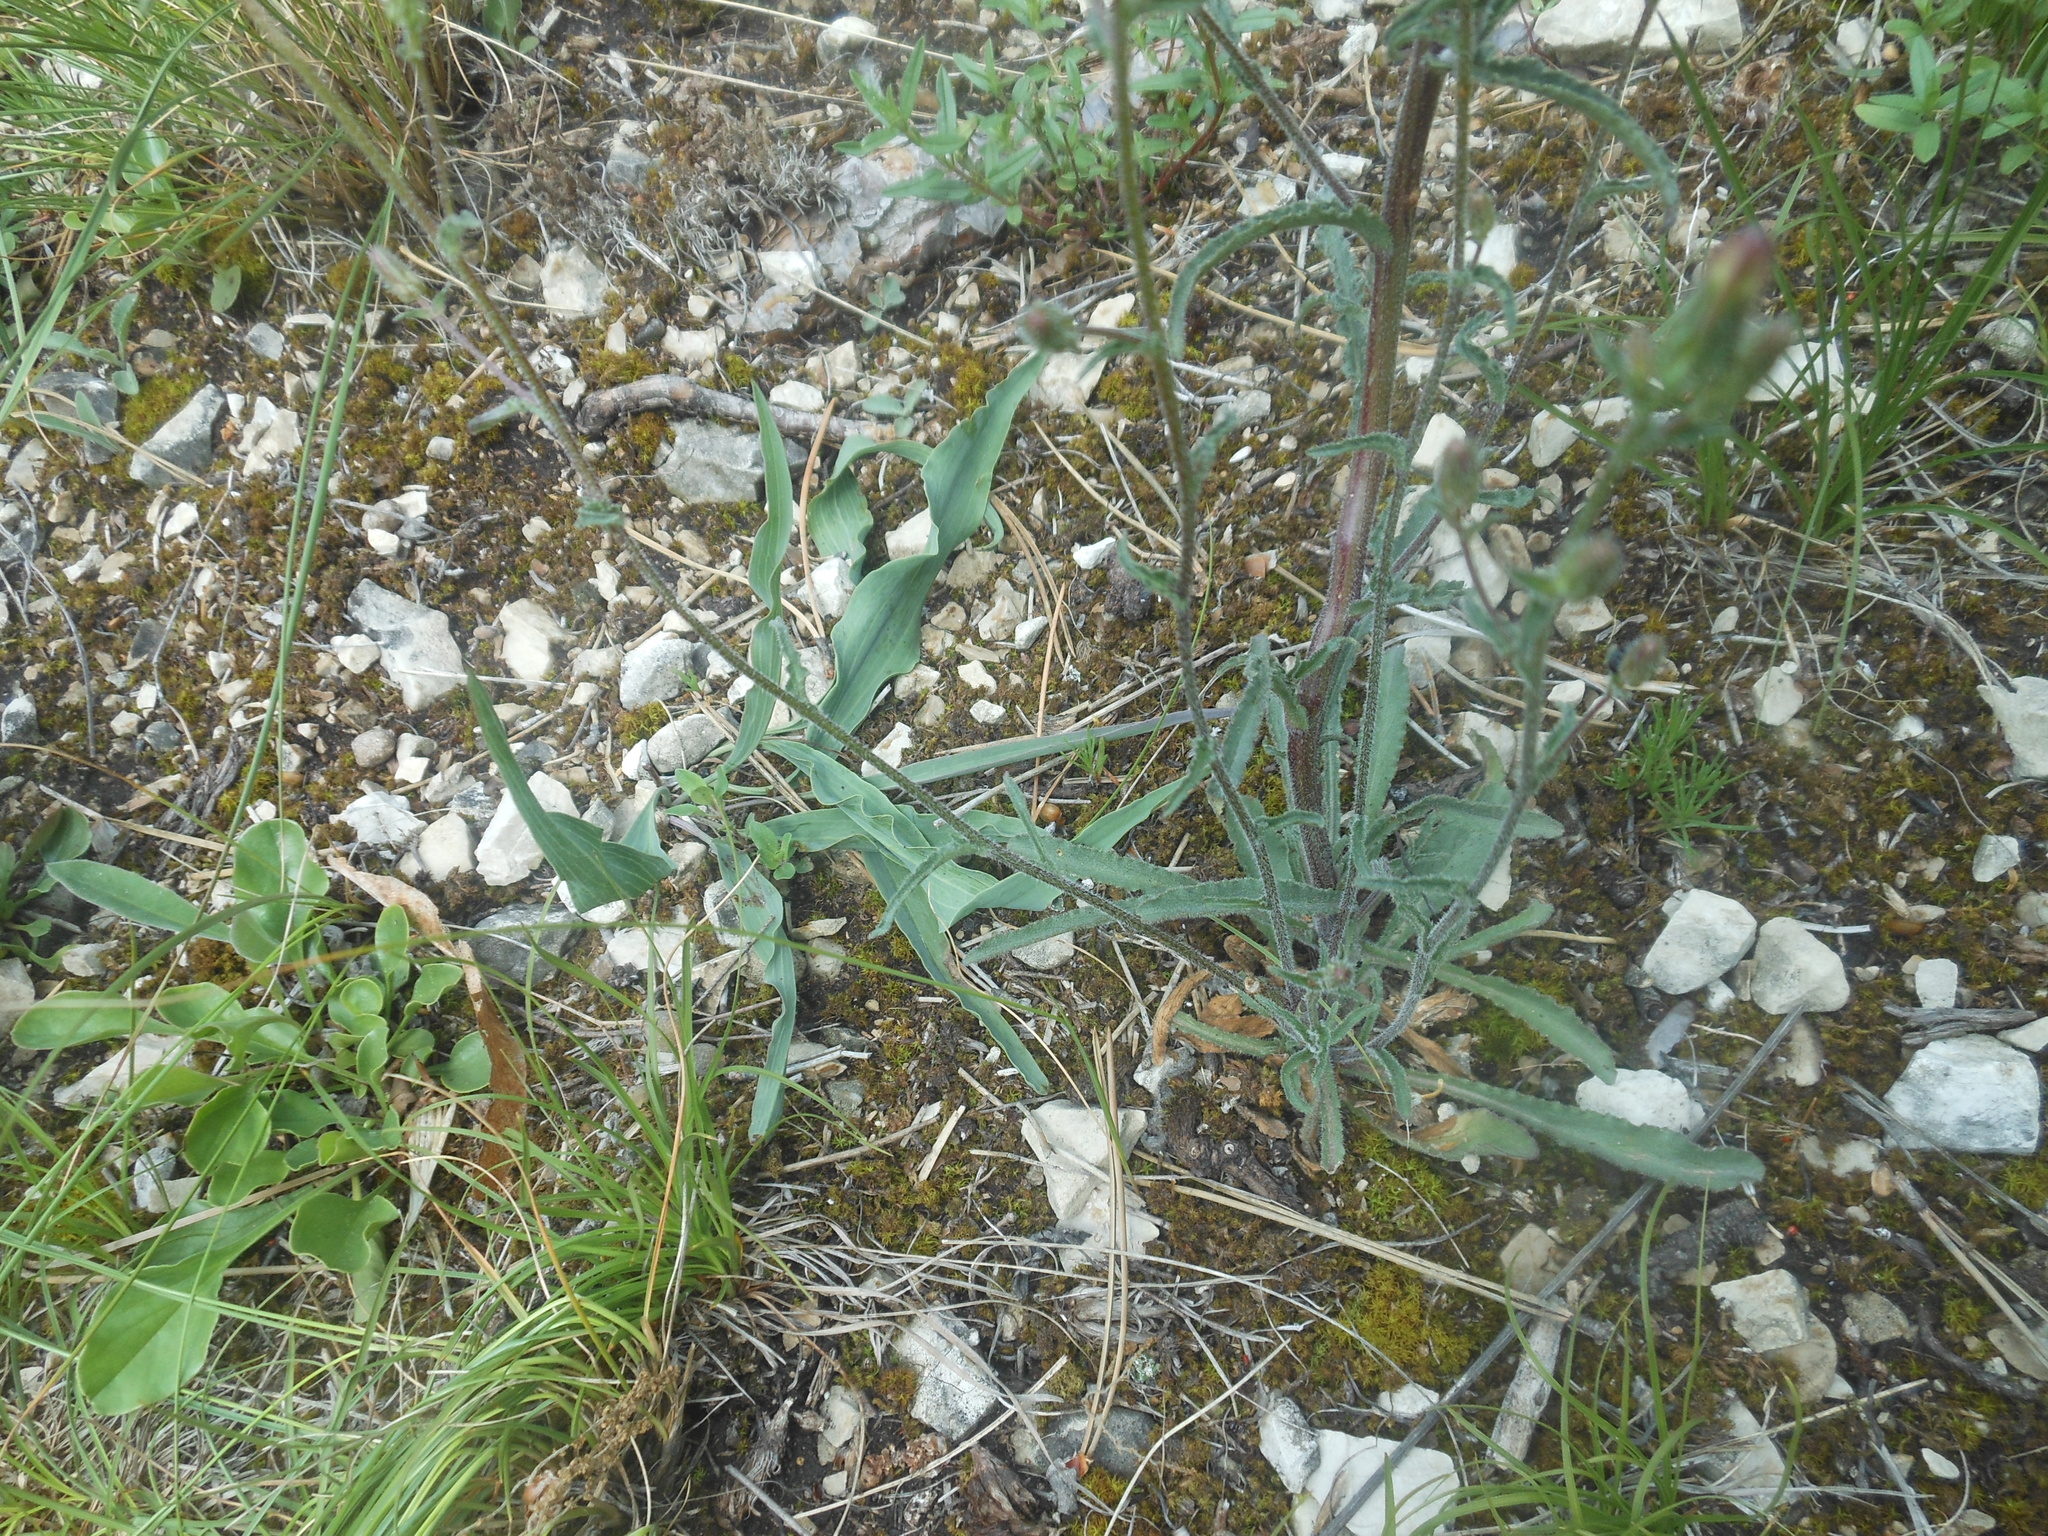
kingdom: Plantae
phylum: Tracheophyta
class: Magnoliopsida
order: Asterales
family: Campanulaceae
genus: Campanula
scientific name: Campanula sibirica
